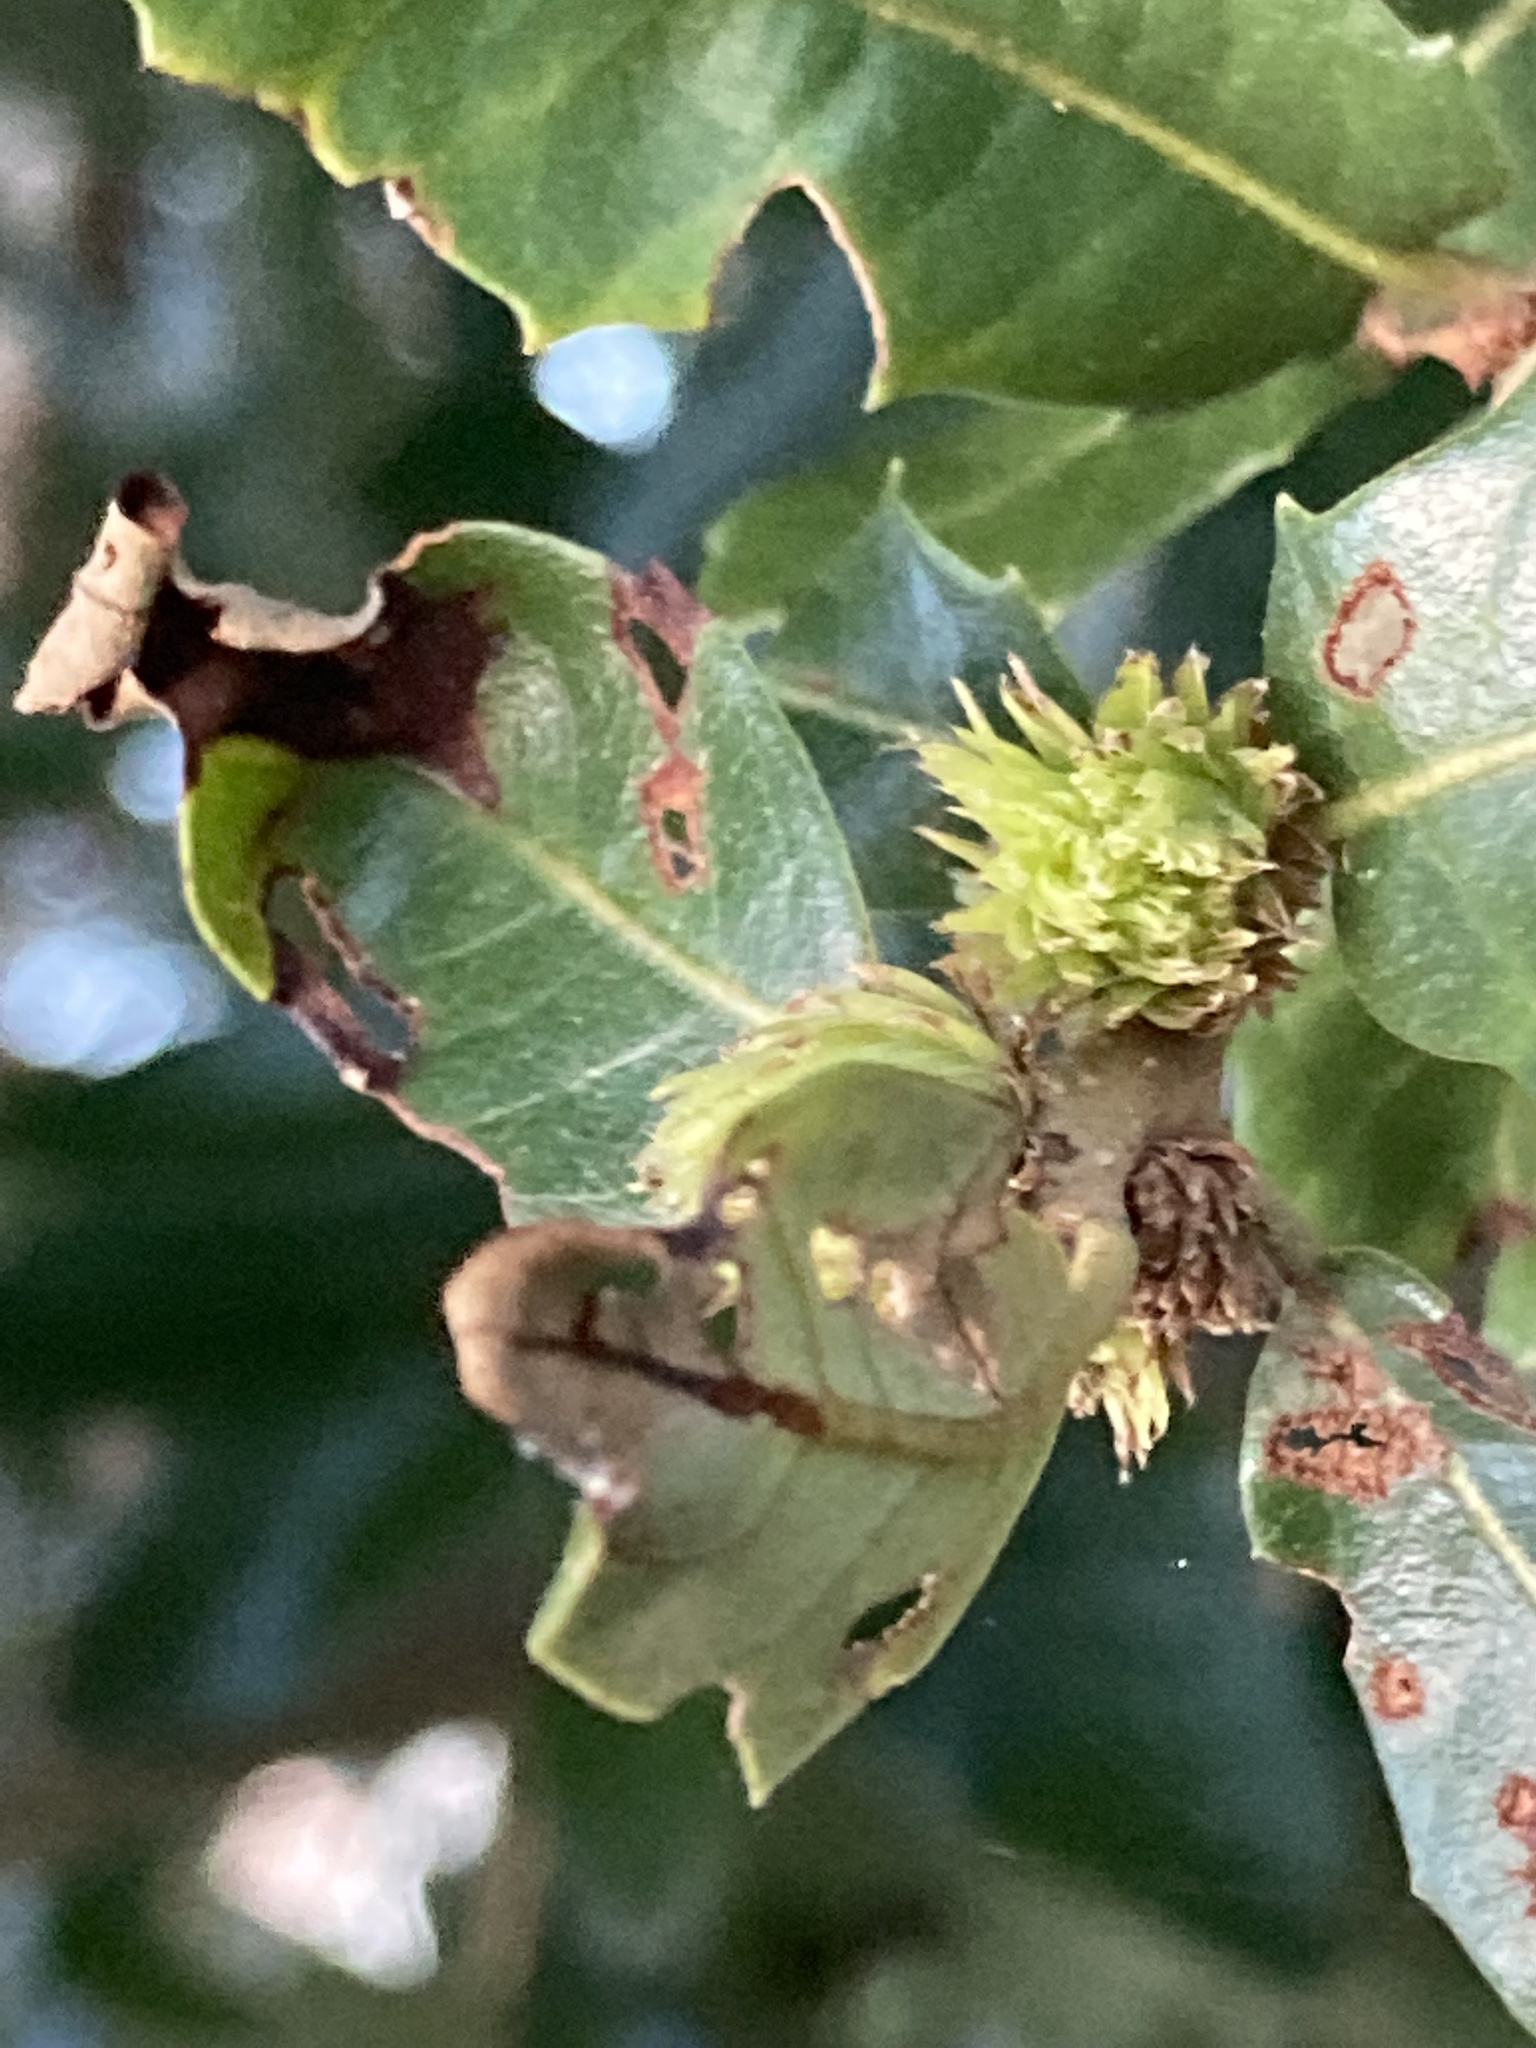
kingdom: Animalia
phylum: Arthropoda
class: Insecta
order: Hymenoptera
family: Cynipidae
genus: Andricus
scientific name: Andricus quercusfoliatus
